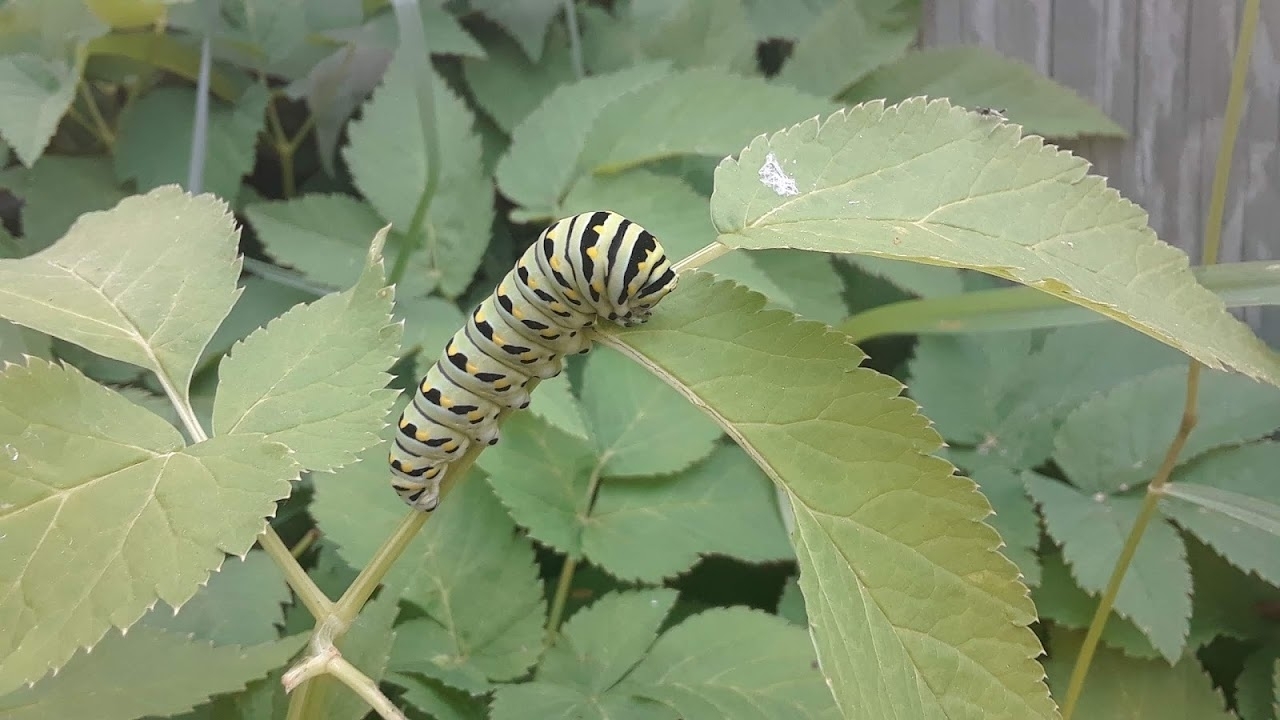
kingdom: Animalia
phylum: Arthropoda
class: Insecta
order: Lepidoptera
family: Papilionidae
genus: Papilio
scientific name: Papilio polyxenes
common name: Black swallowtail
